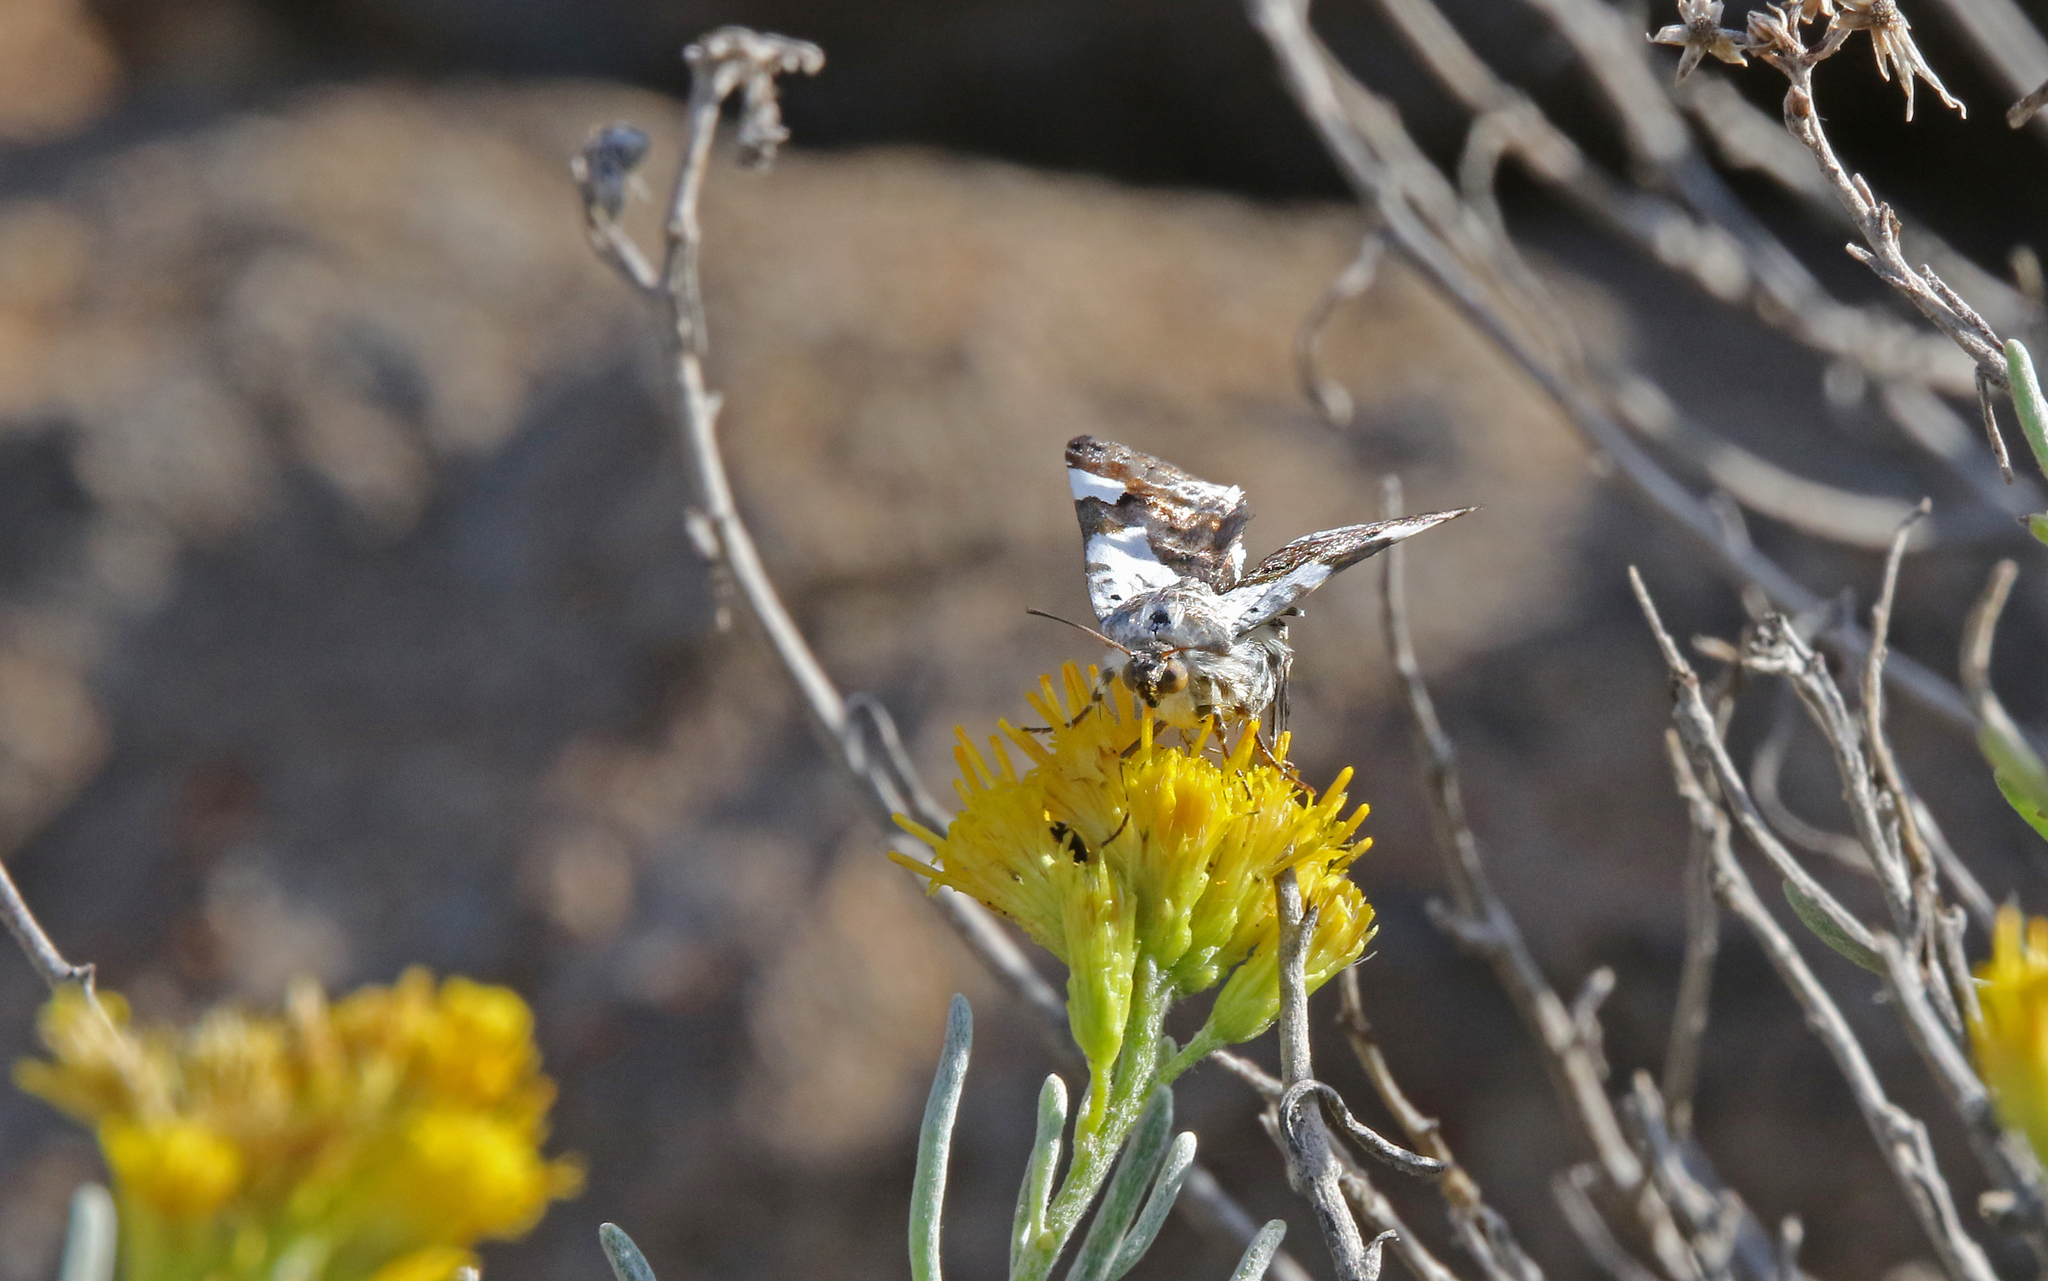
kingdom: Animalia
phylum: Arthropoda
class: Insecta
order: Lepidoptera
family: Noctuidae
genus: Acontia
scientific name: Acontia lucida
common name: Pale shoulder
